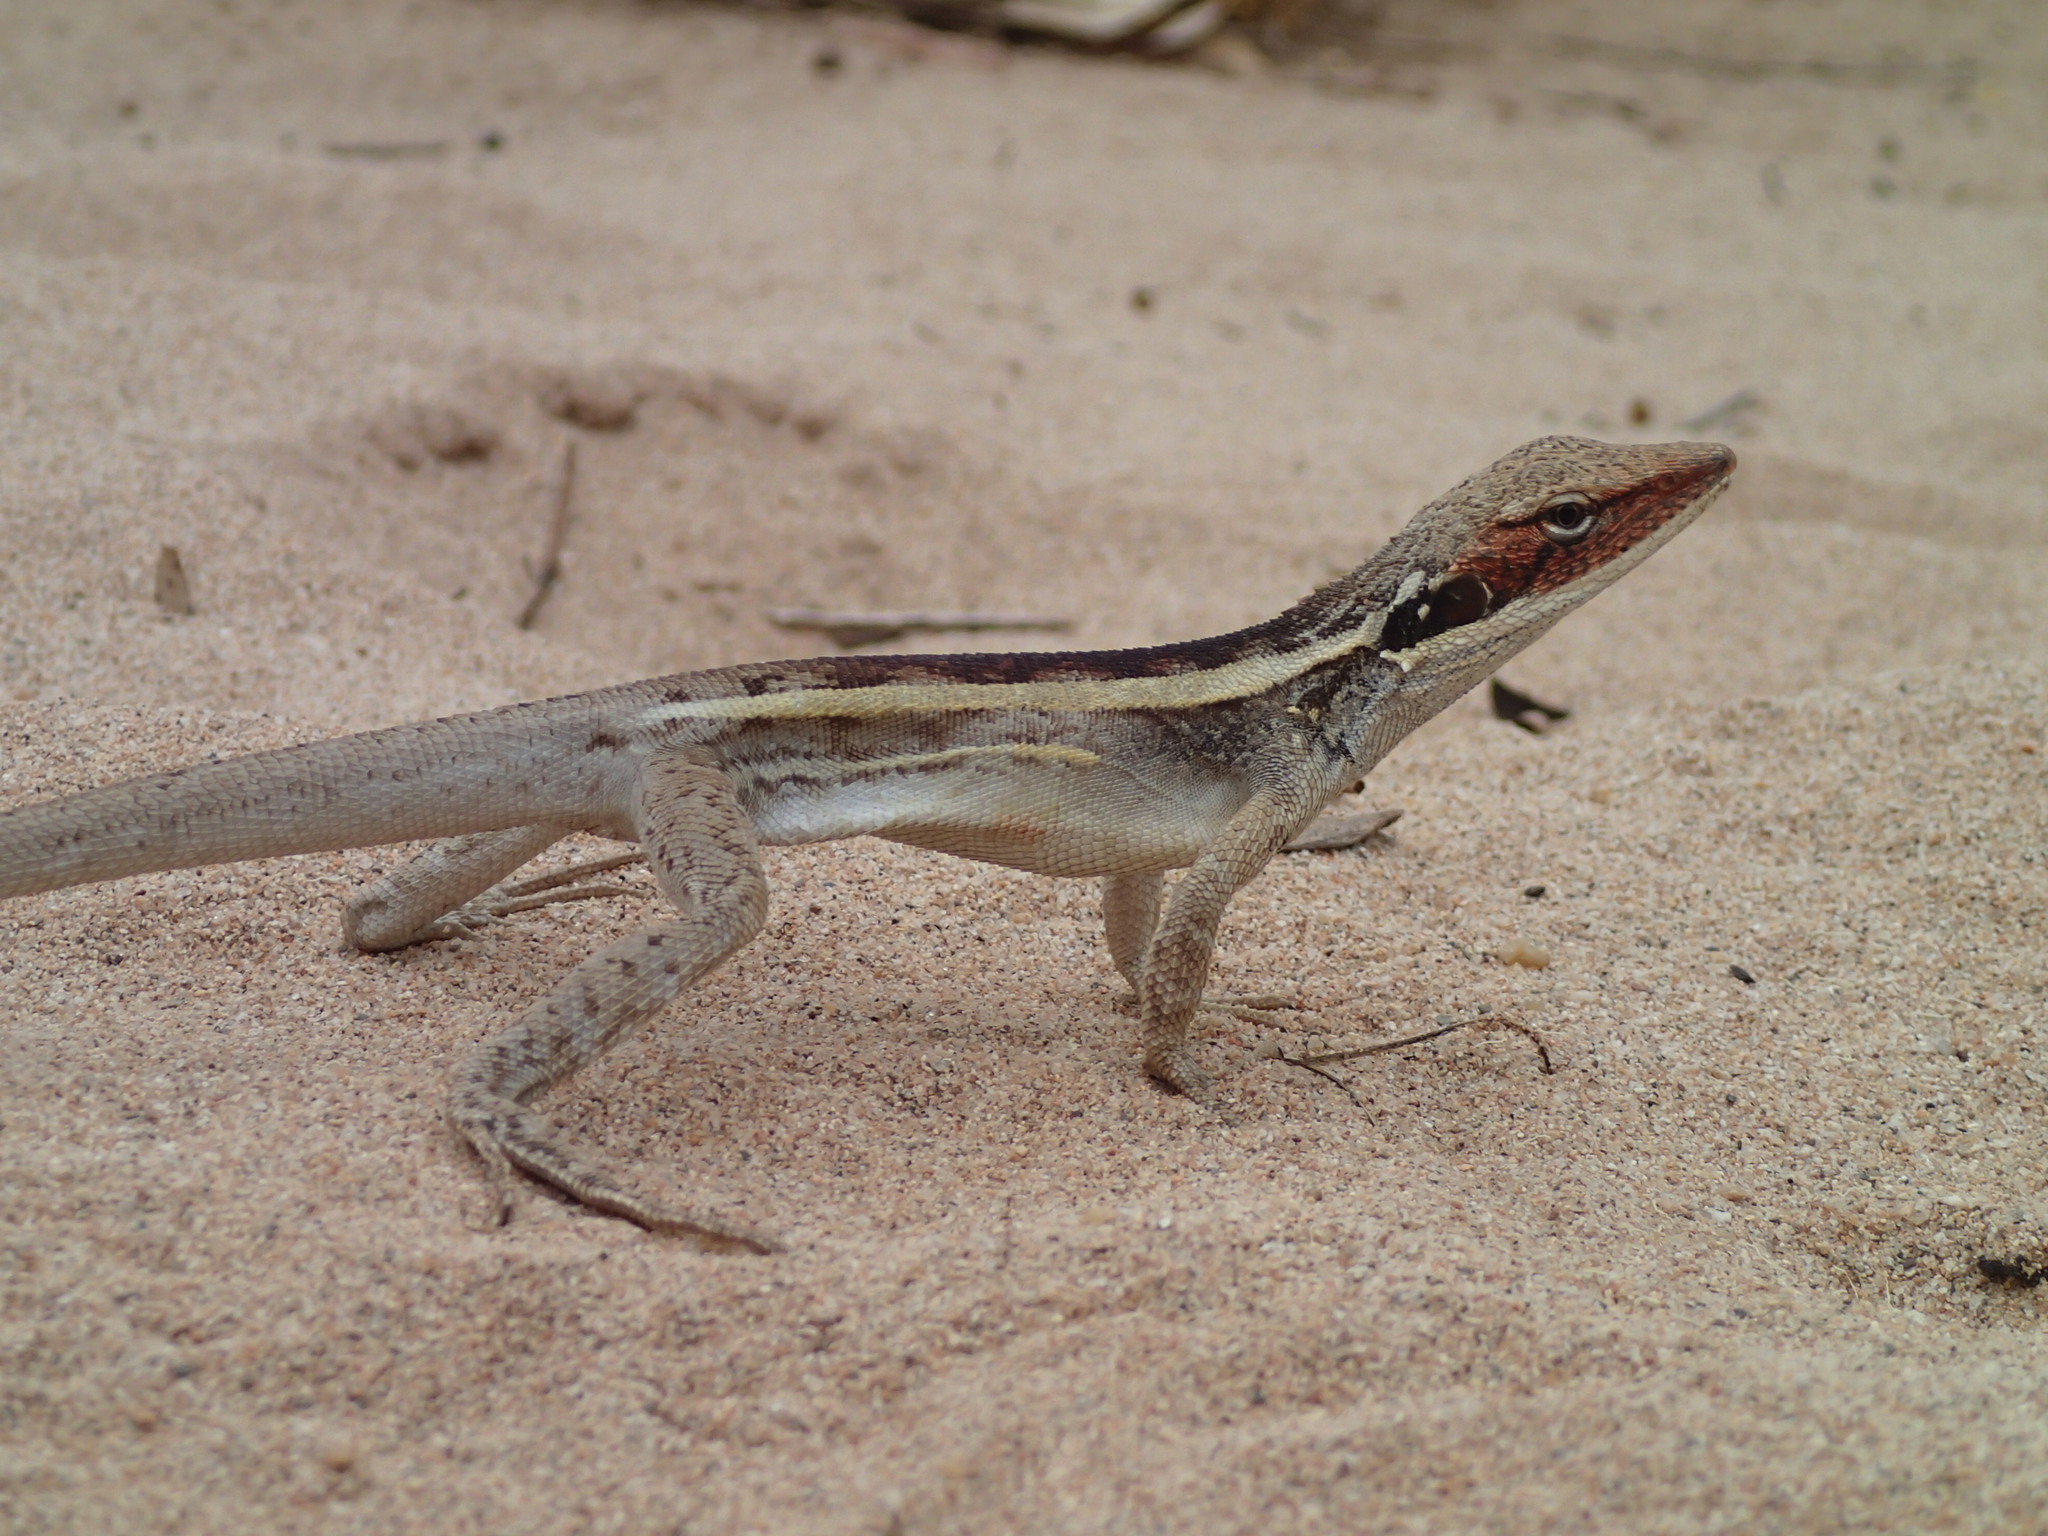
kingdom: Animalia
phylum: Chordata
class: Squamata
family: Agamidae
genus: Gowidon
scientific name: Gowidon longirostris
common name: Long-nosed water dragon
